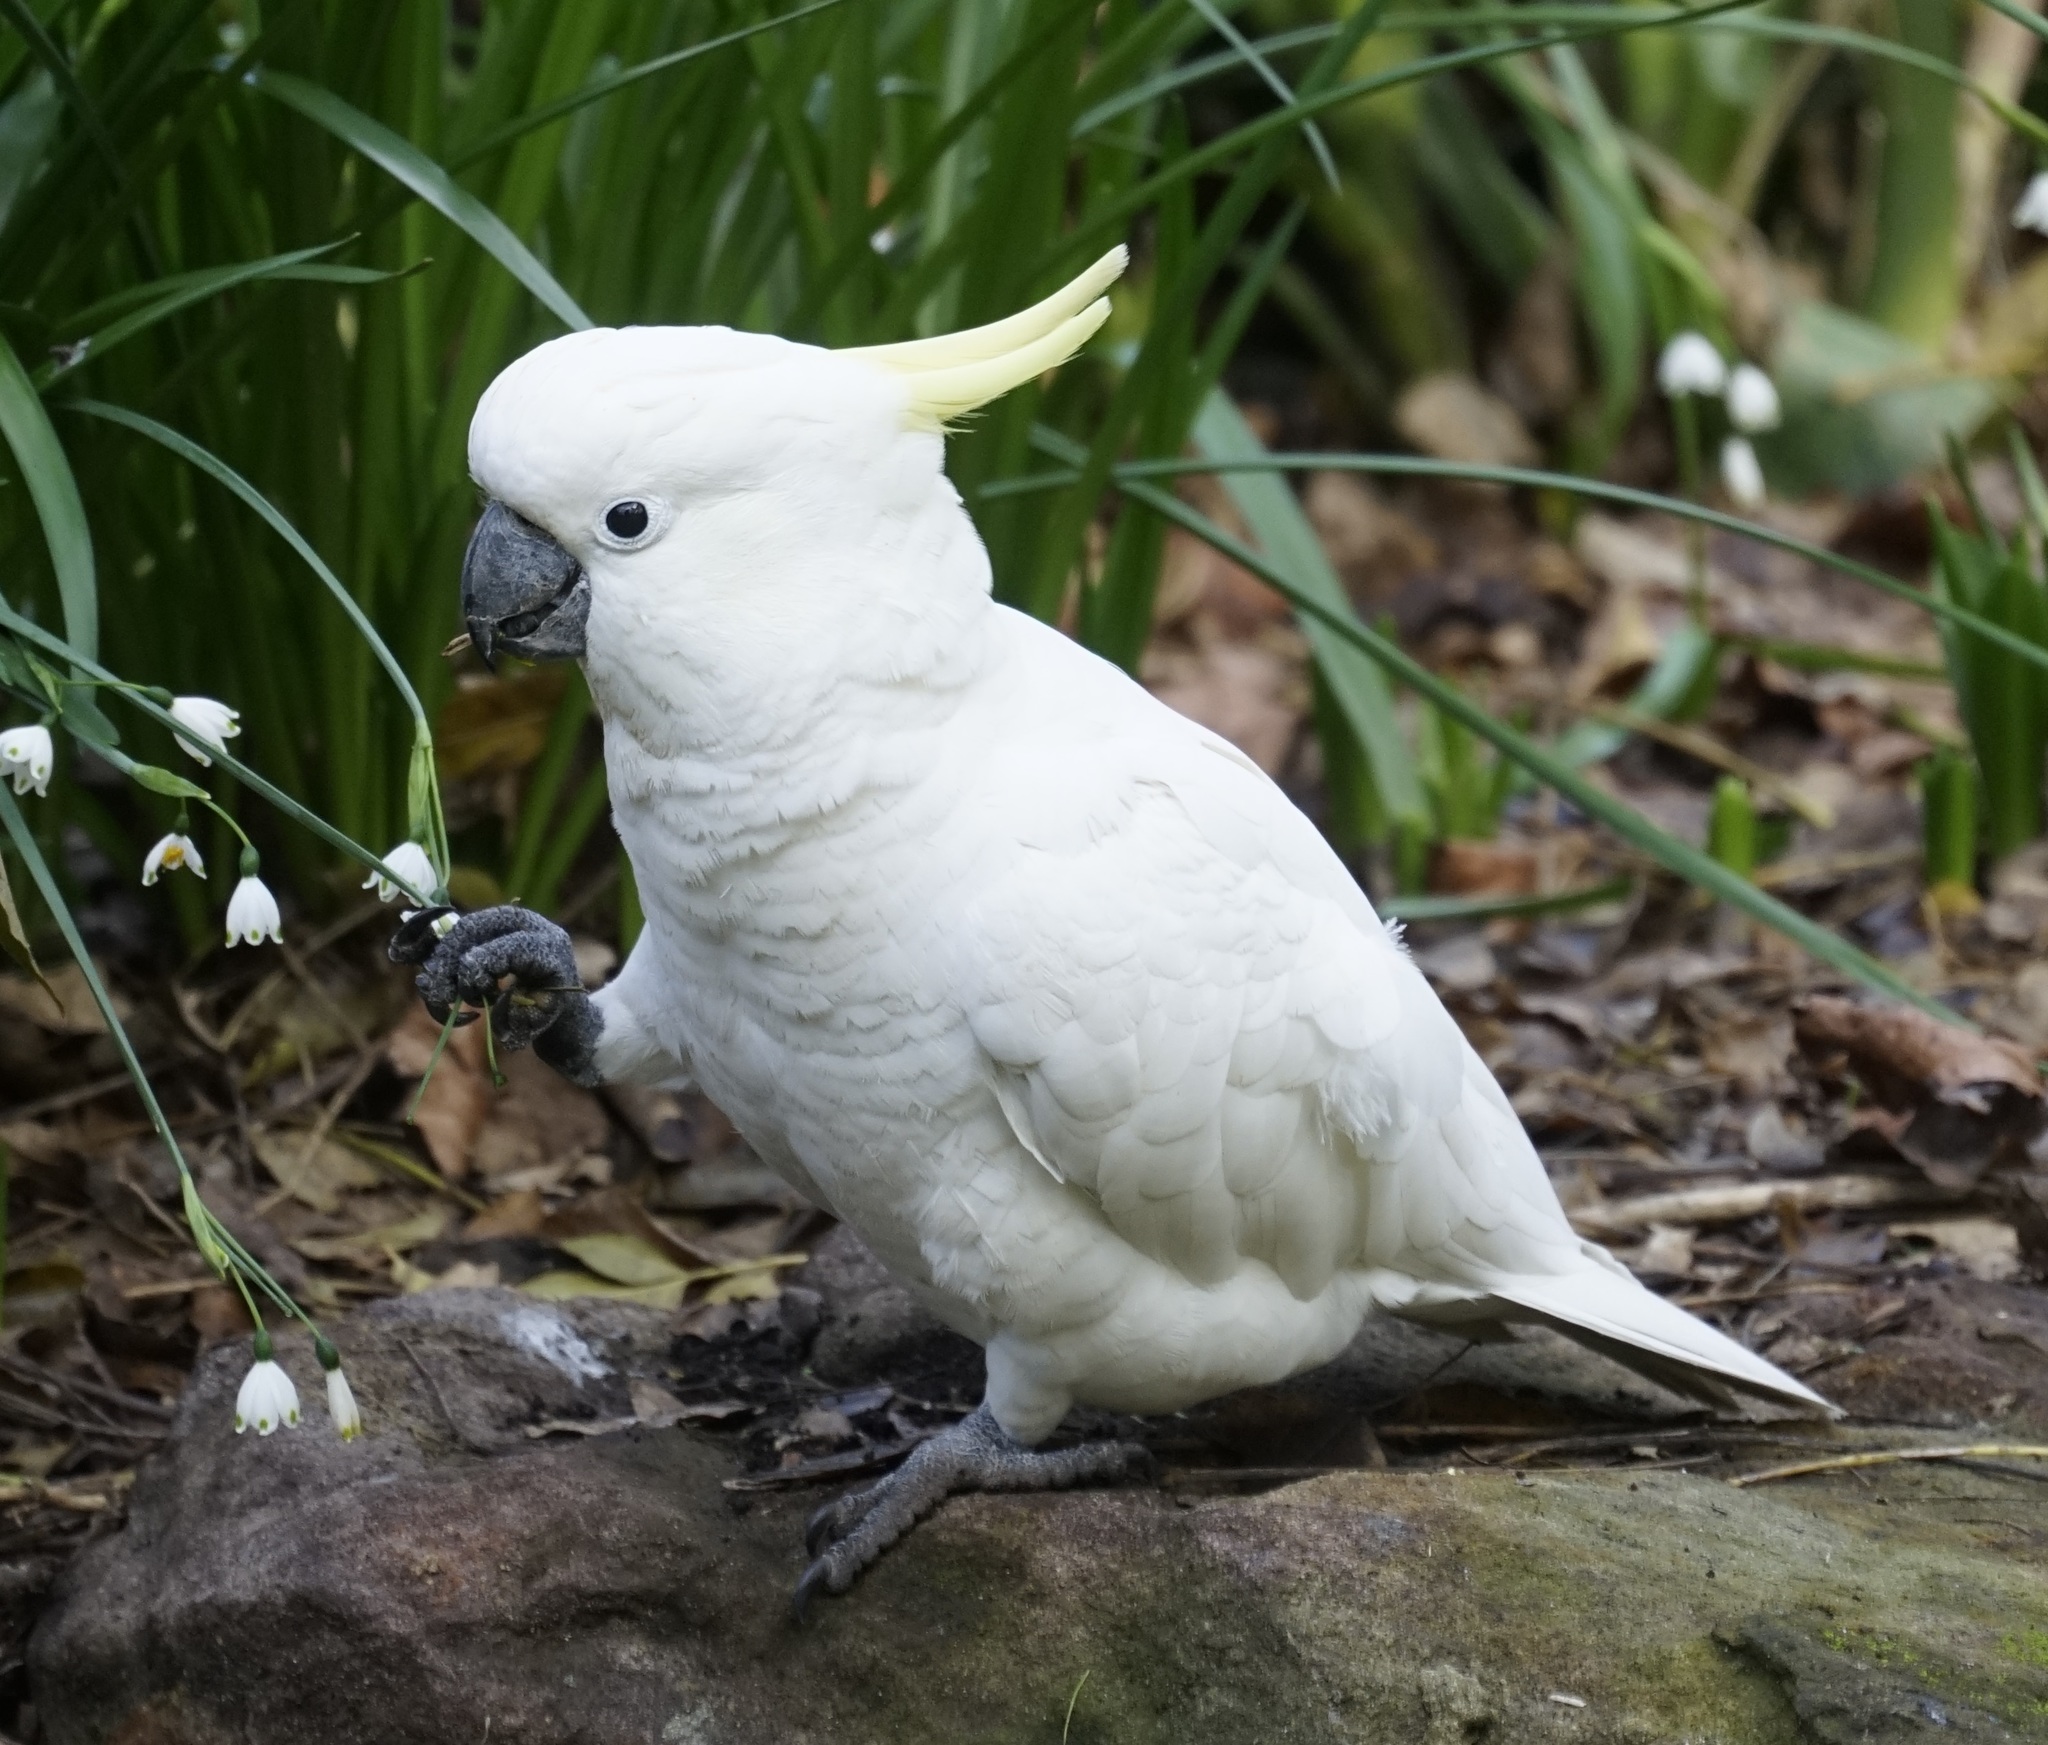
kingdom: Animalia
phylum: Chordata
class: Aves
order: Psittaciformes
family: Psittacidae
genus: Cacatua
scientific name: Cacatua galerita
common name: Sulphur-crested cockatoo
